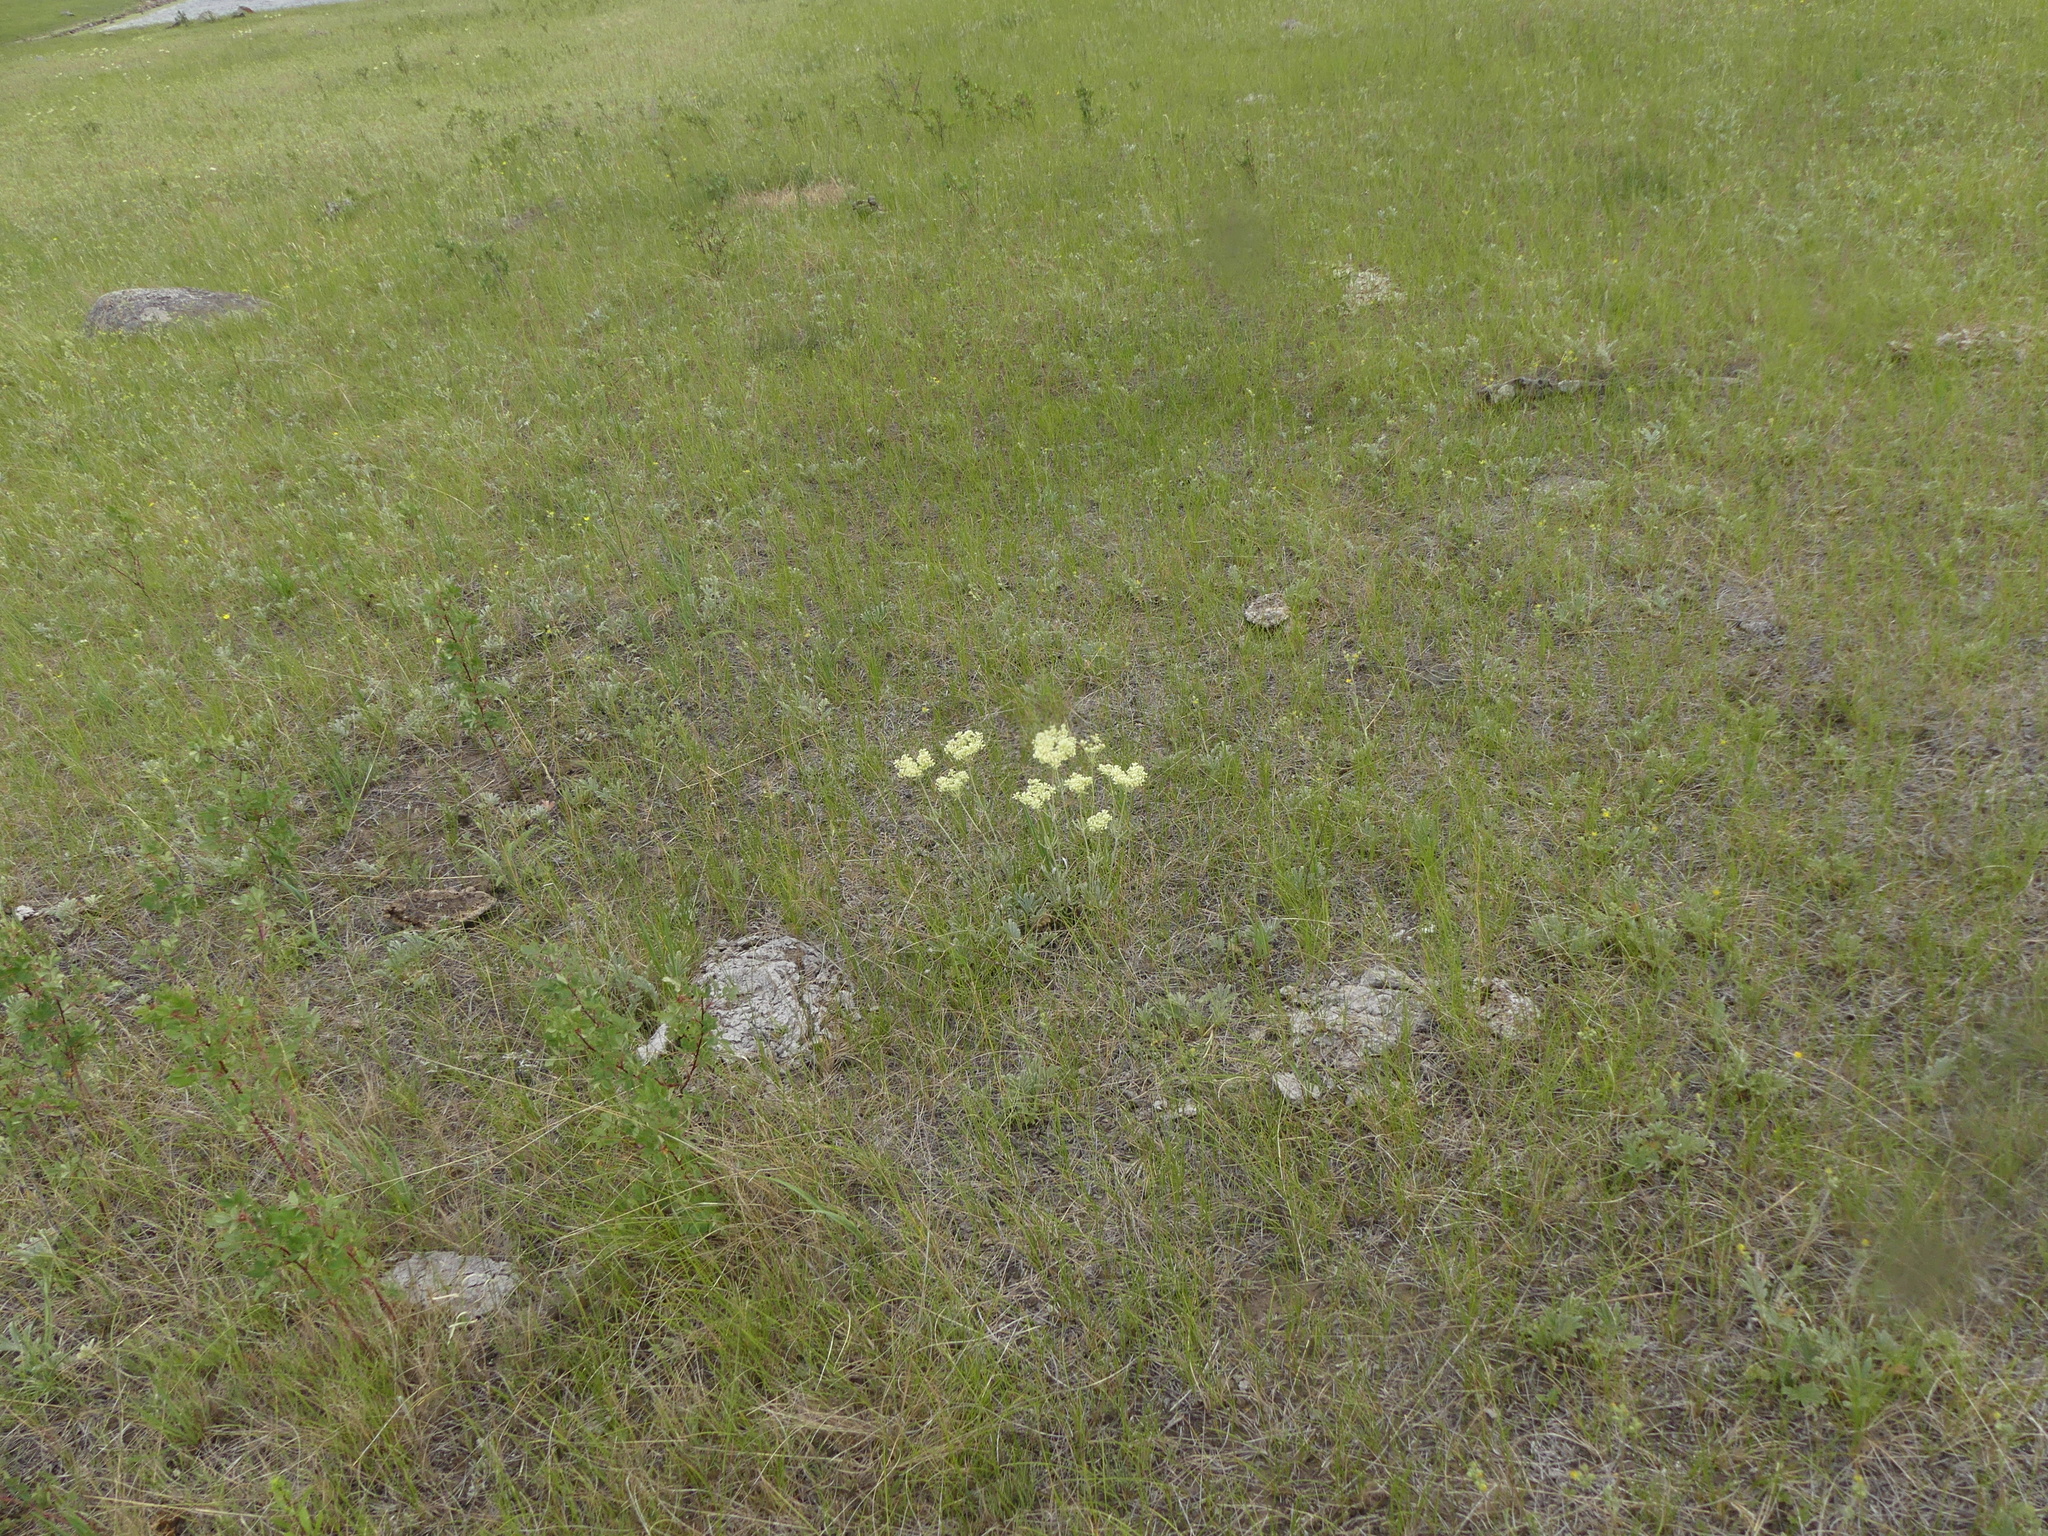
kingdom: Plantae
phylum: Tracheophyta
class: Magnoliopsida
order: Caryophyllales
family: Polygonaceae
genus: Eriogonum
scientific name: Eriogonum heracleoides
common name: Wyeth's buckwheat
